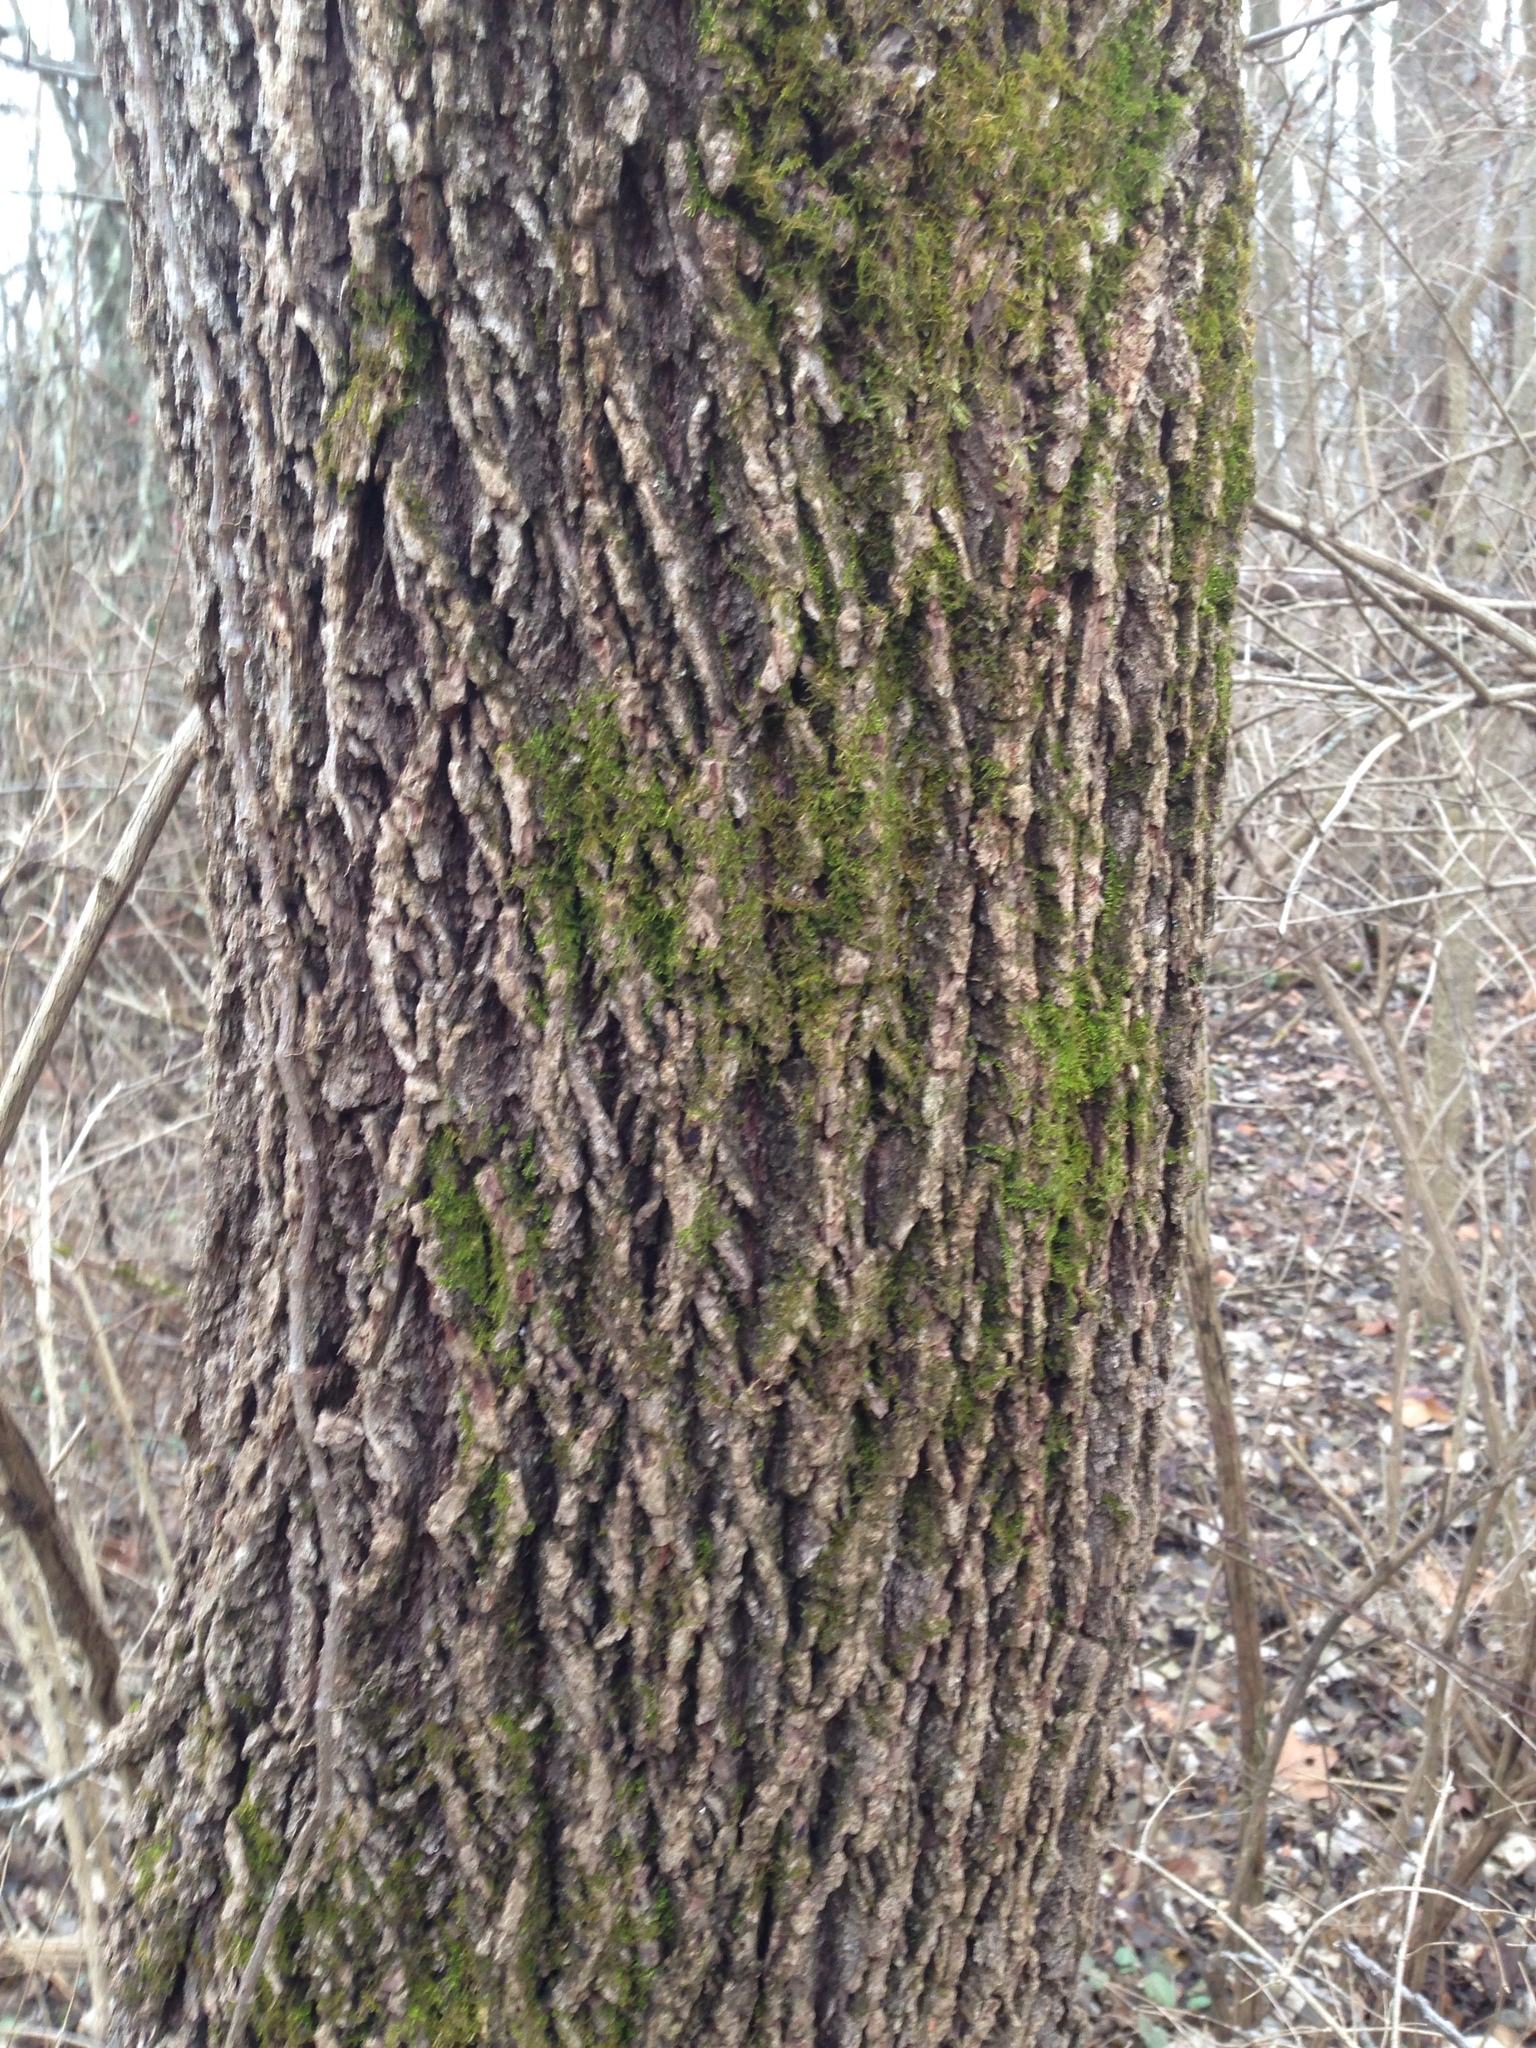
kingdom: Plantae
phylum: Tracheophyta
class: Magnoliopsida
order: Fagales
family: Juglandaceae
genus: Juglans
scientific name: Juglans nigra
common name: Black walnut
